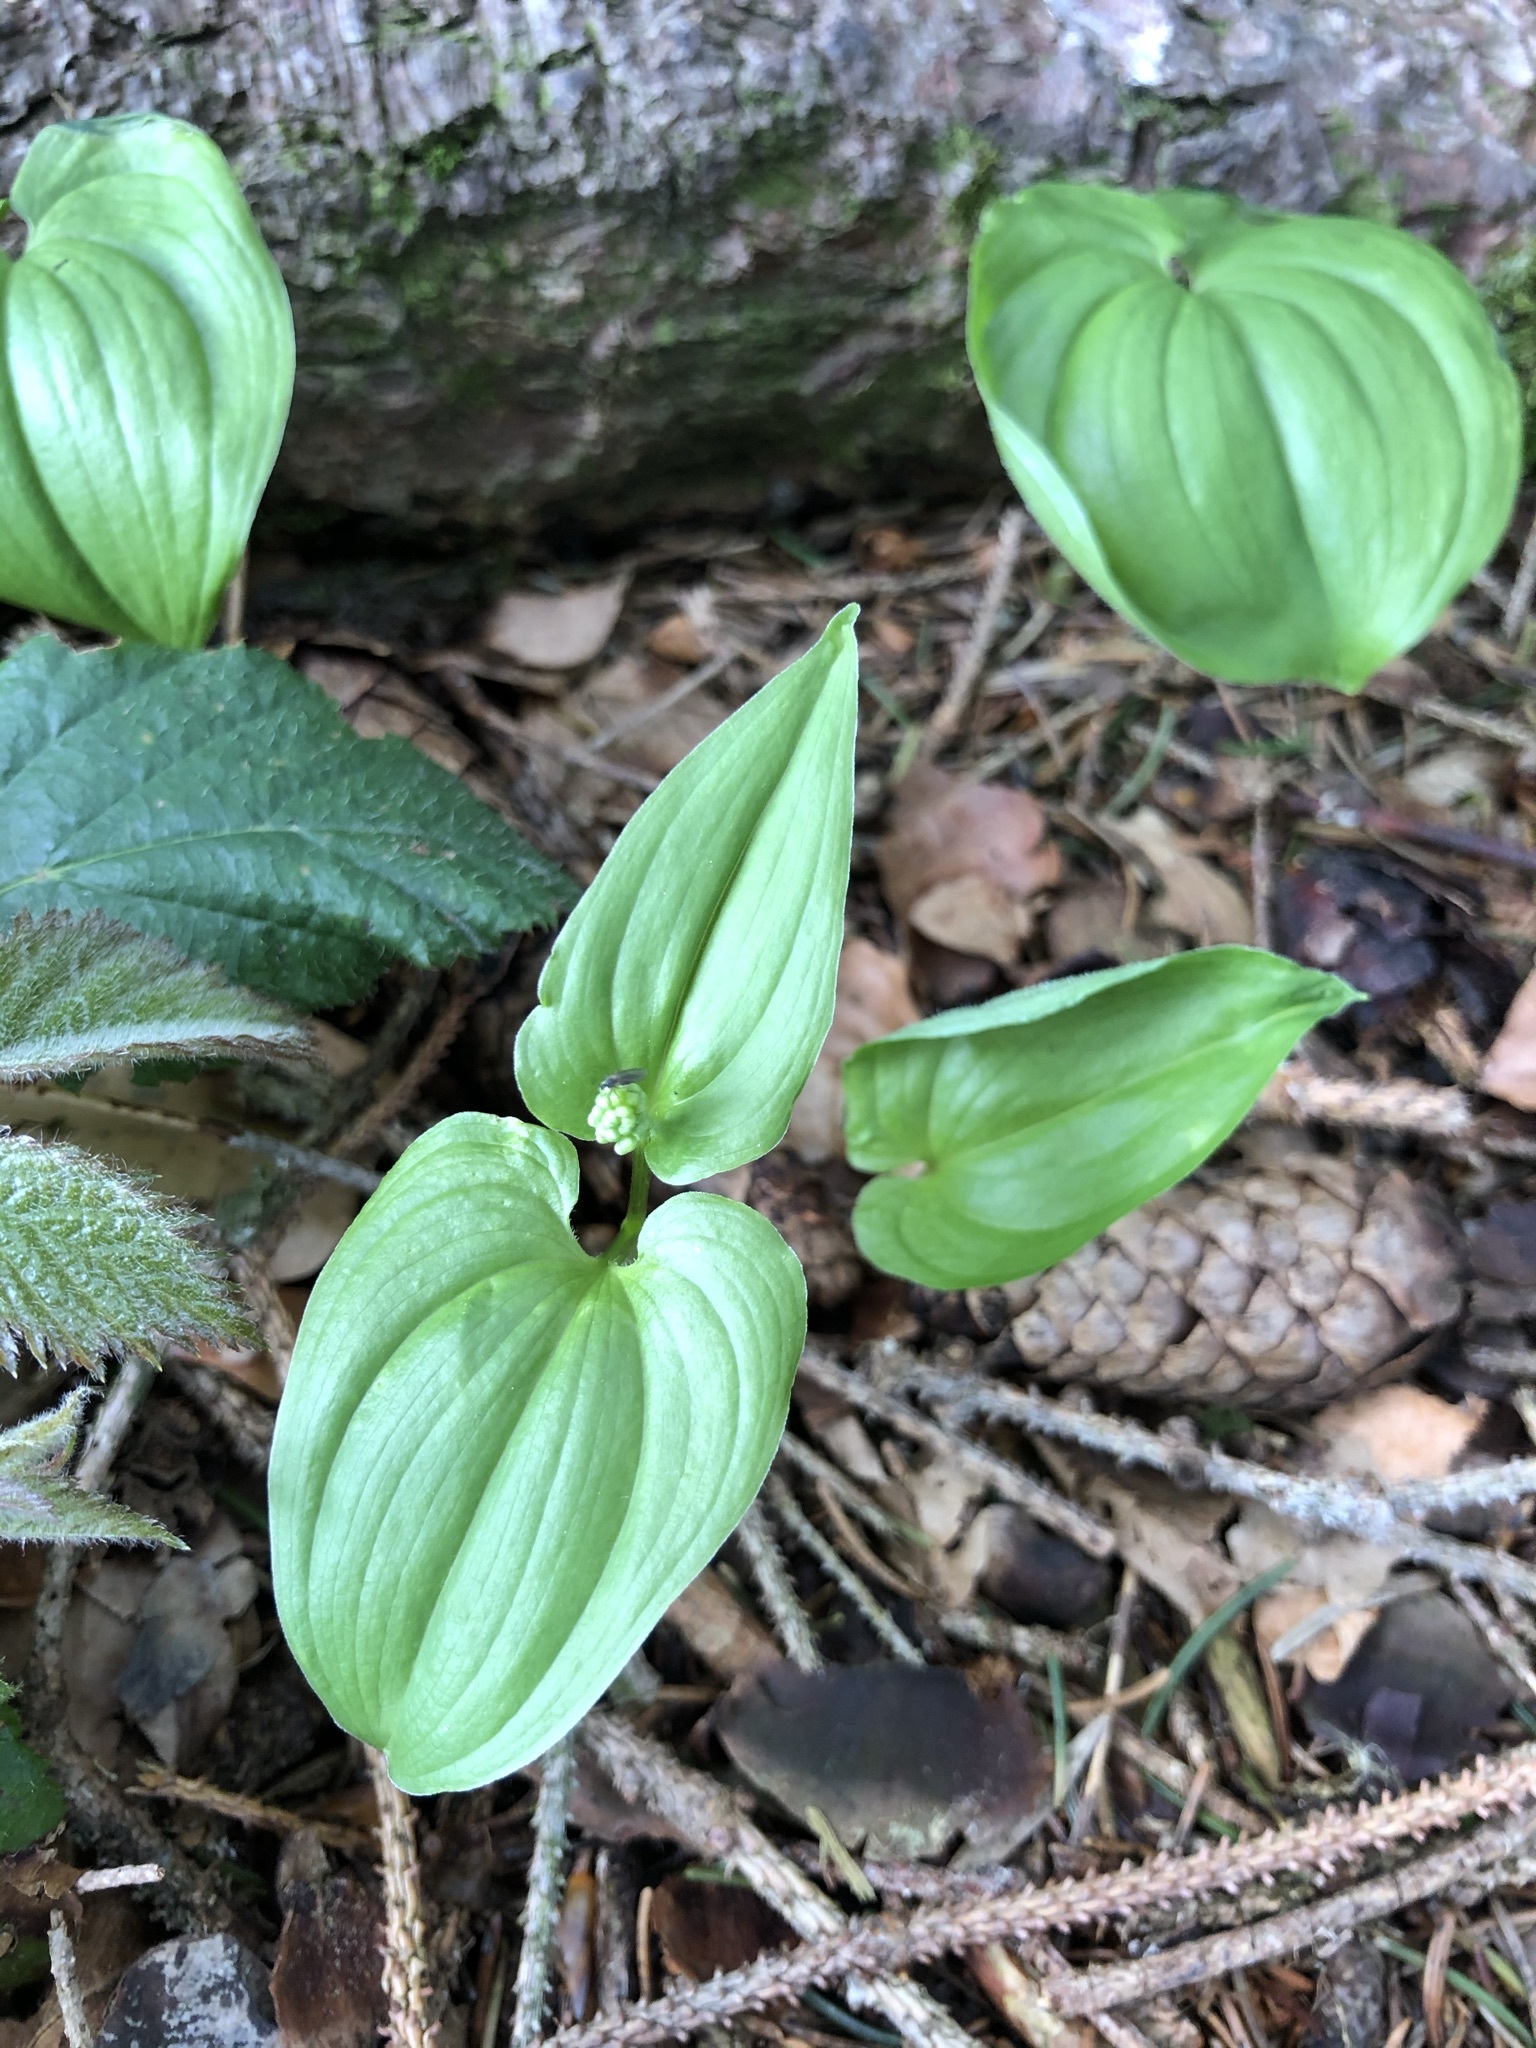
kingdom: Plantae
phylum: Tracheophyta
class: Liliopsida
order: Asparagales
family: Asparagaceae
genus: Maianthemum
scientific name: Maianthemum bifolium
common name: May lily
